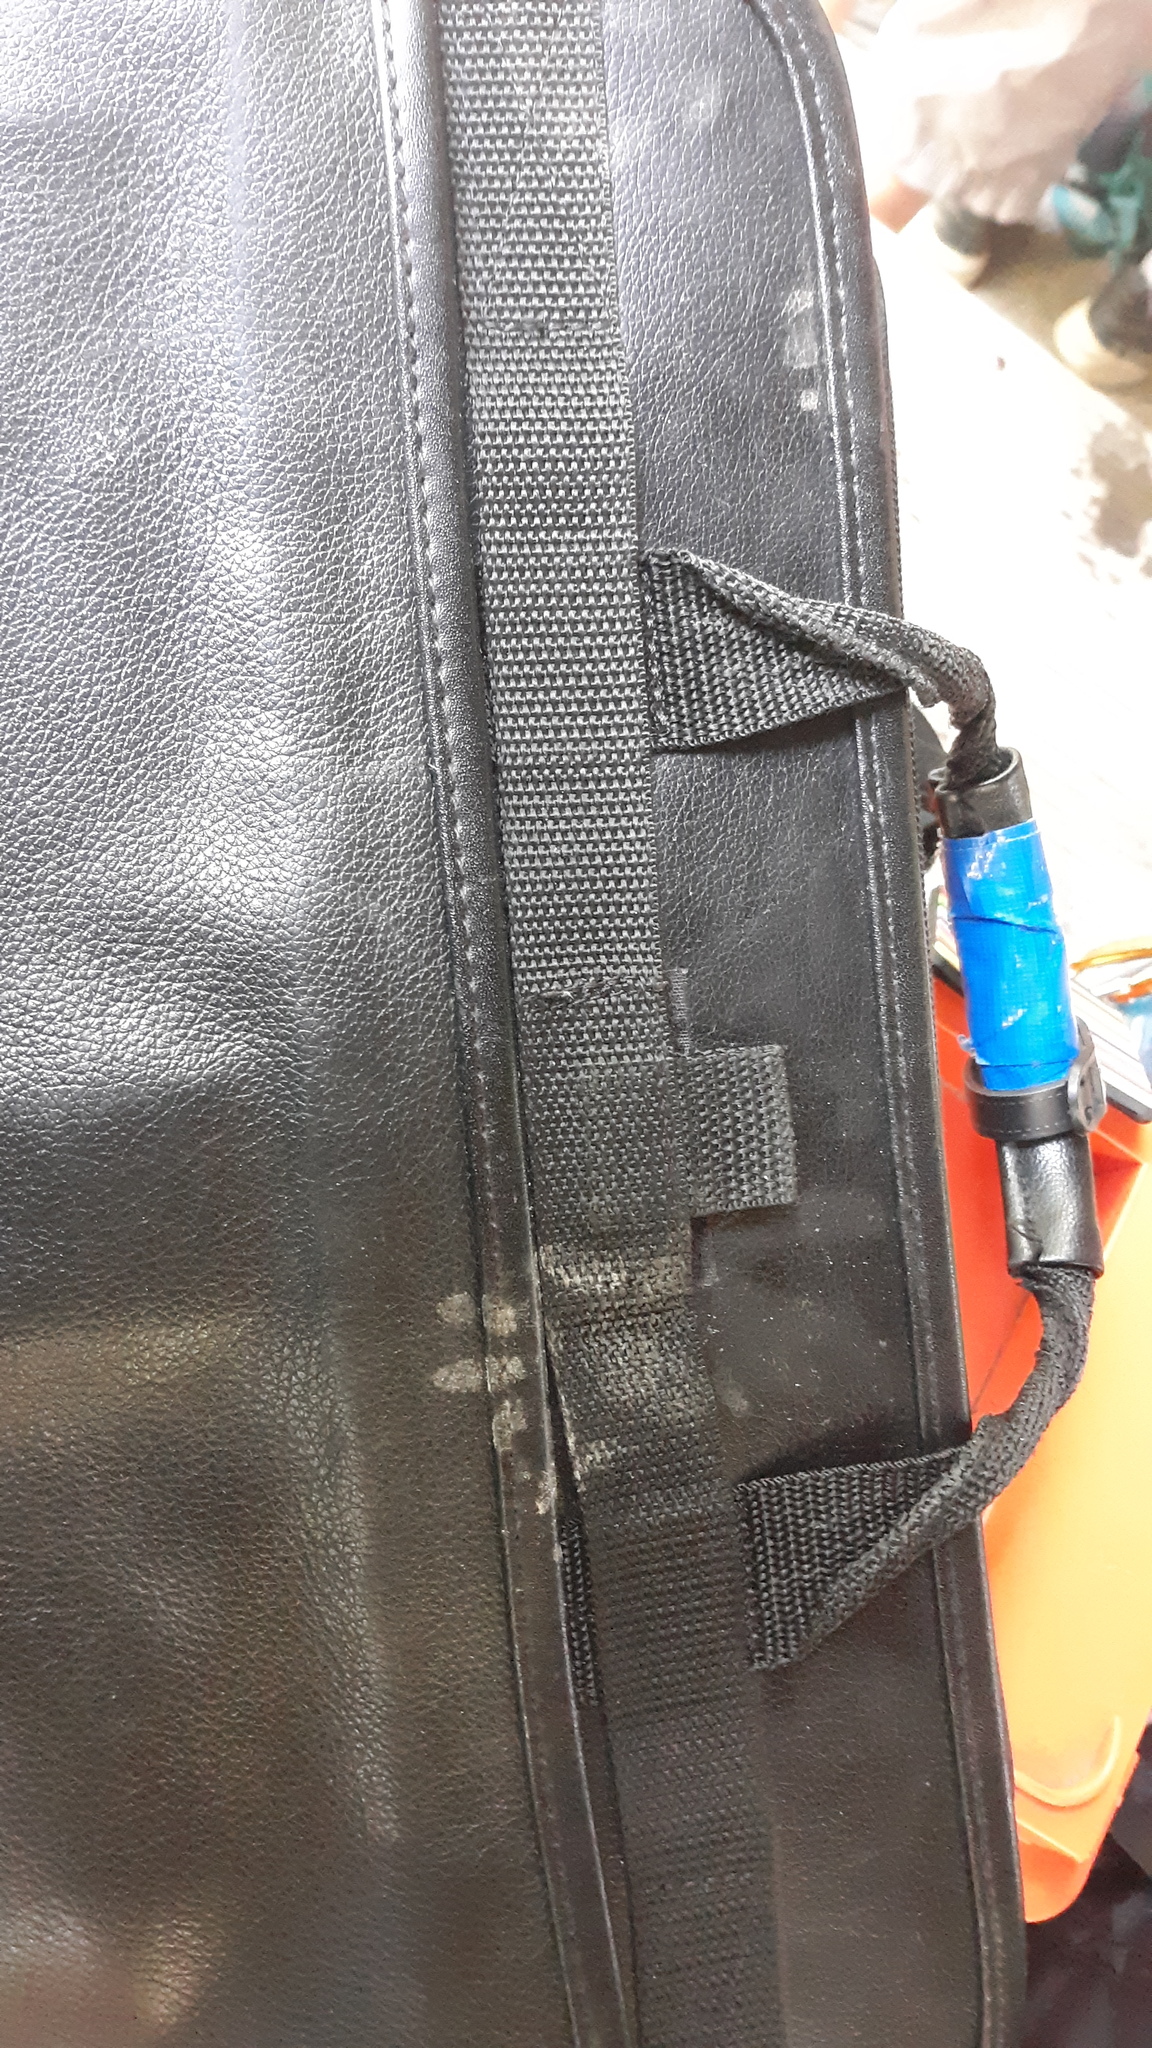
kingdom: Animalia
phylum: Chordata
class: Mammalia
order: Carnivora
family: Procyonidae
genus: Procyon
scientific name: Procyon lotor
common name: Raccoon
